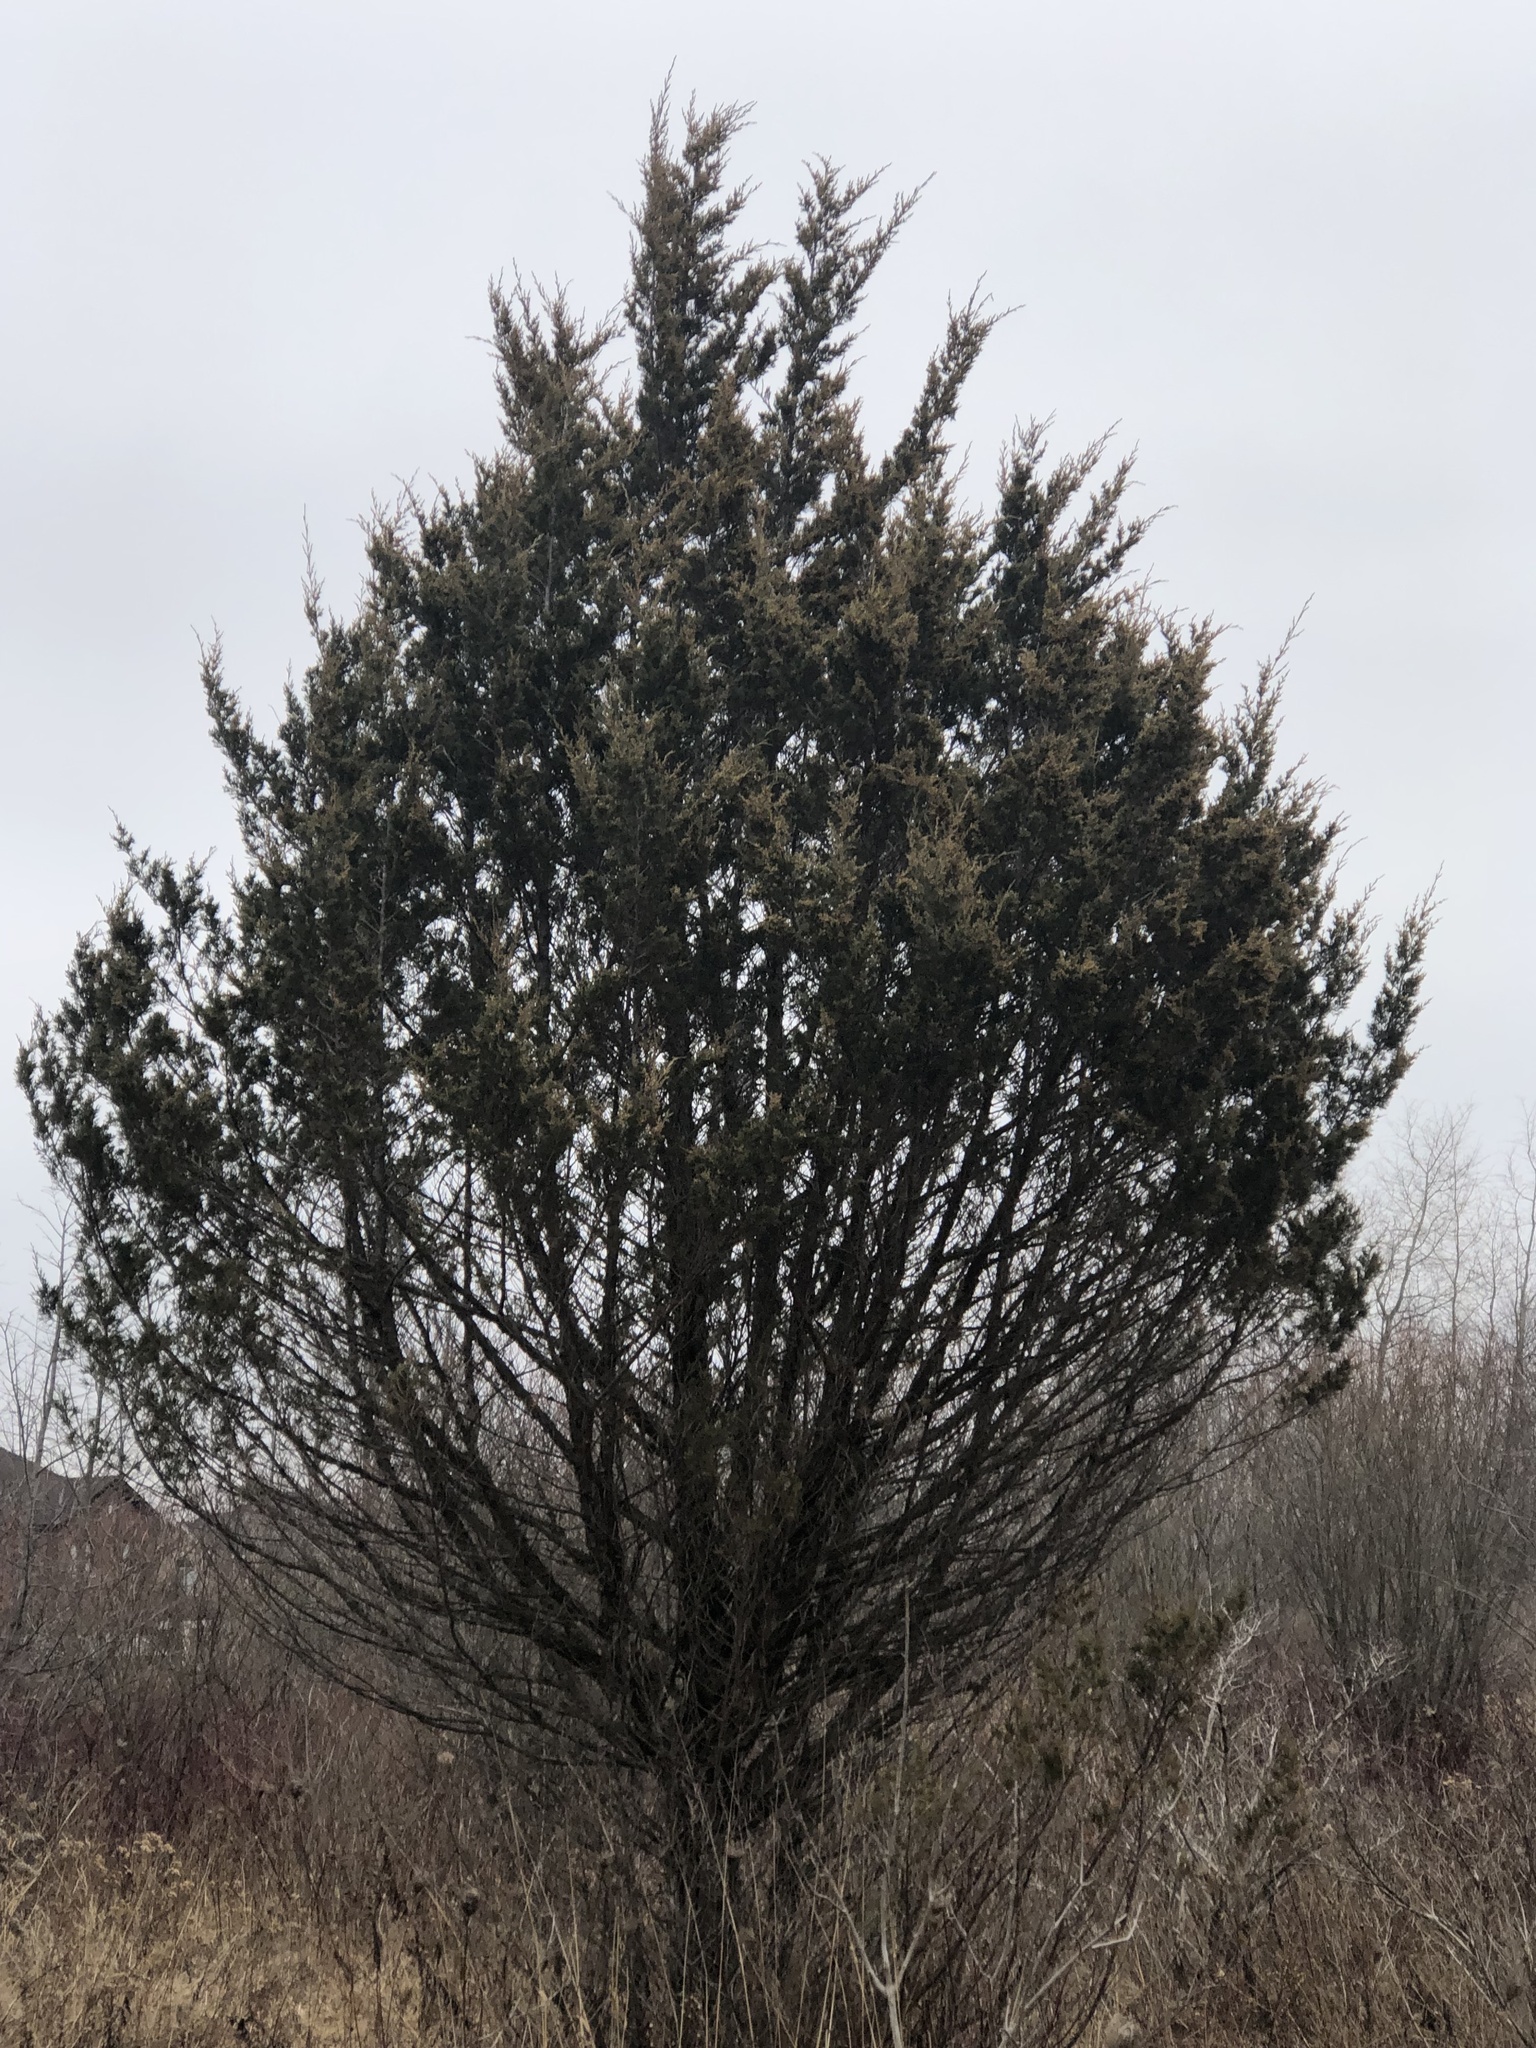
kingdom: Plantae
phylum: Tracheophyta
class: Pinopsida
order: Pinales
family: Cupressaceae
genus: Juniperus
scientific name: Juniperus virginiana
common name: Red juniper
